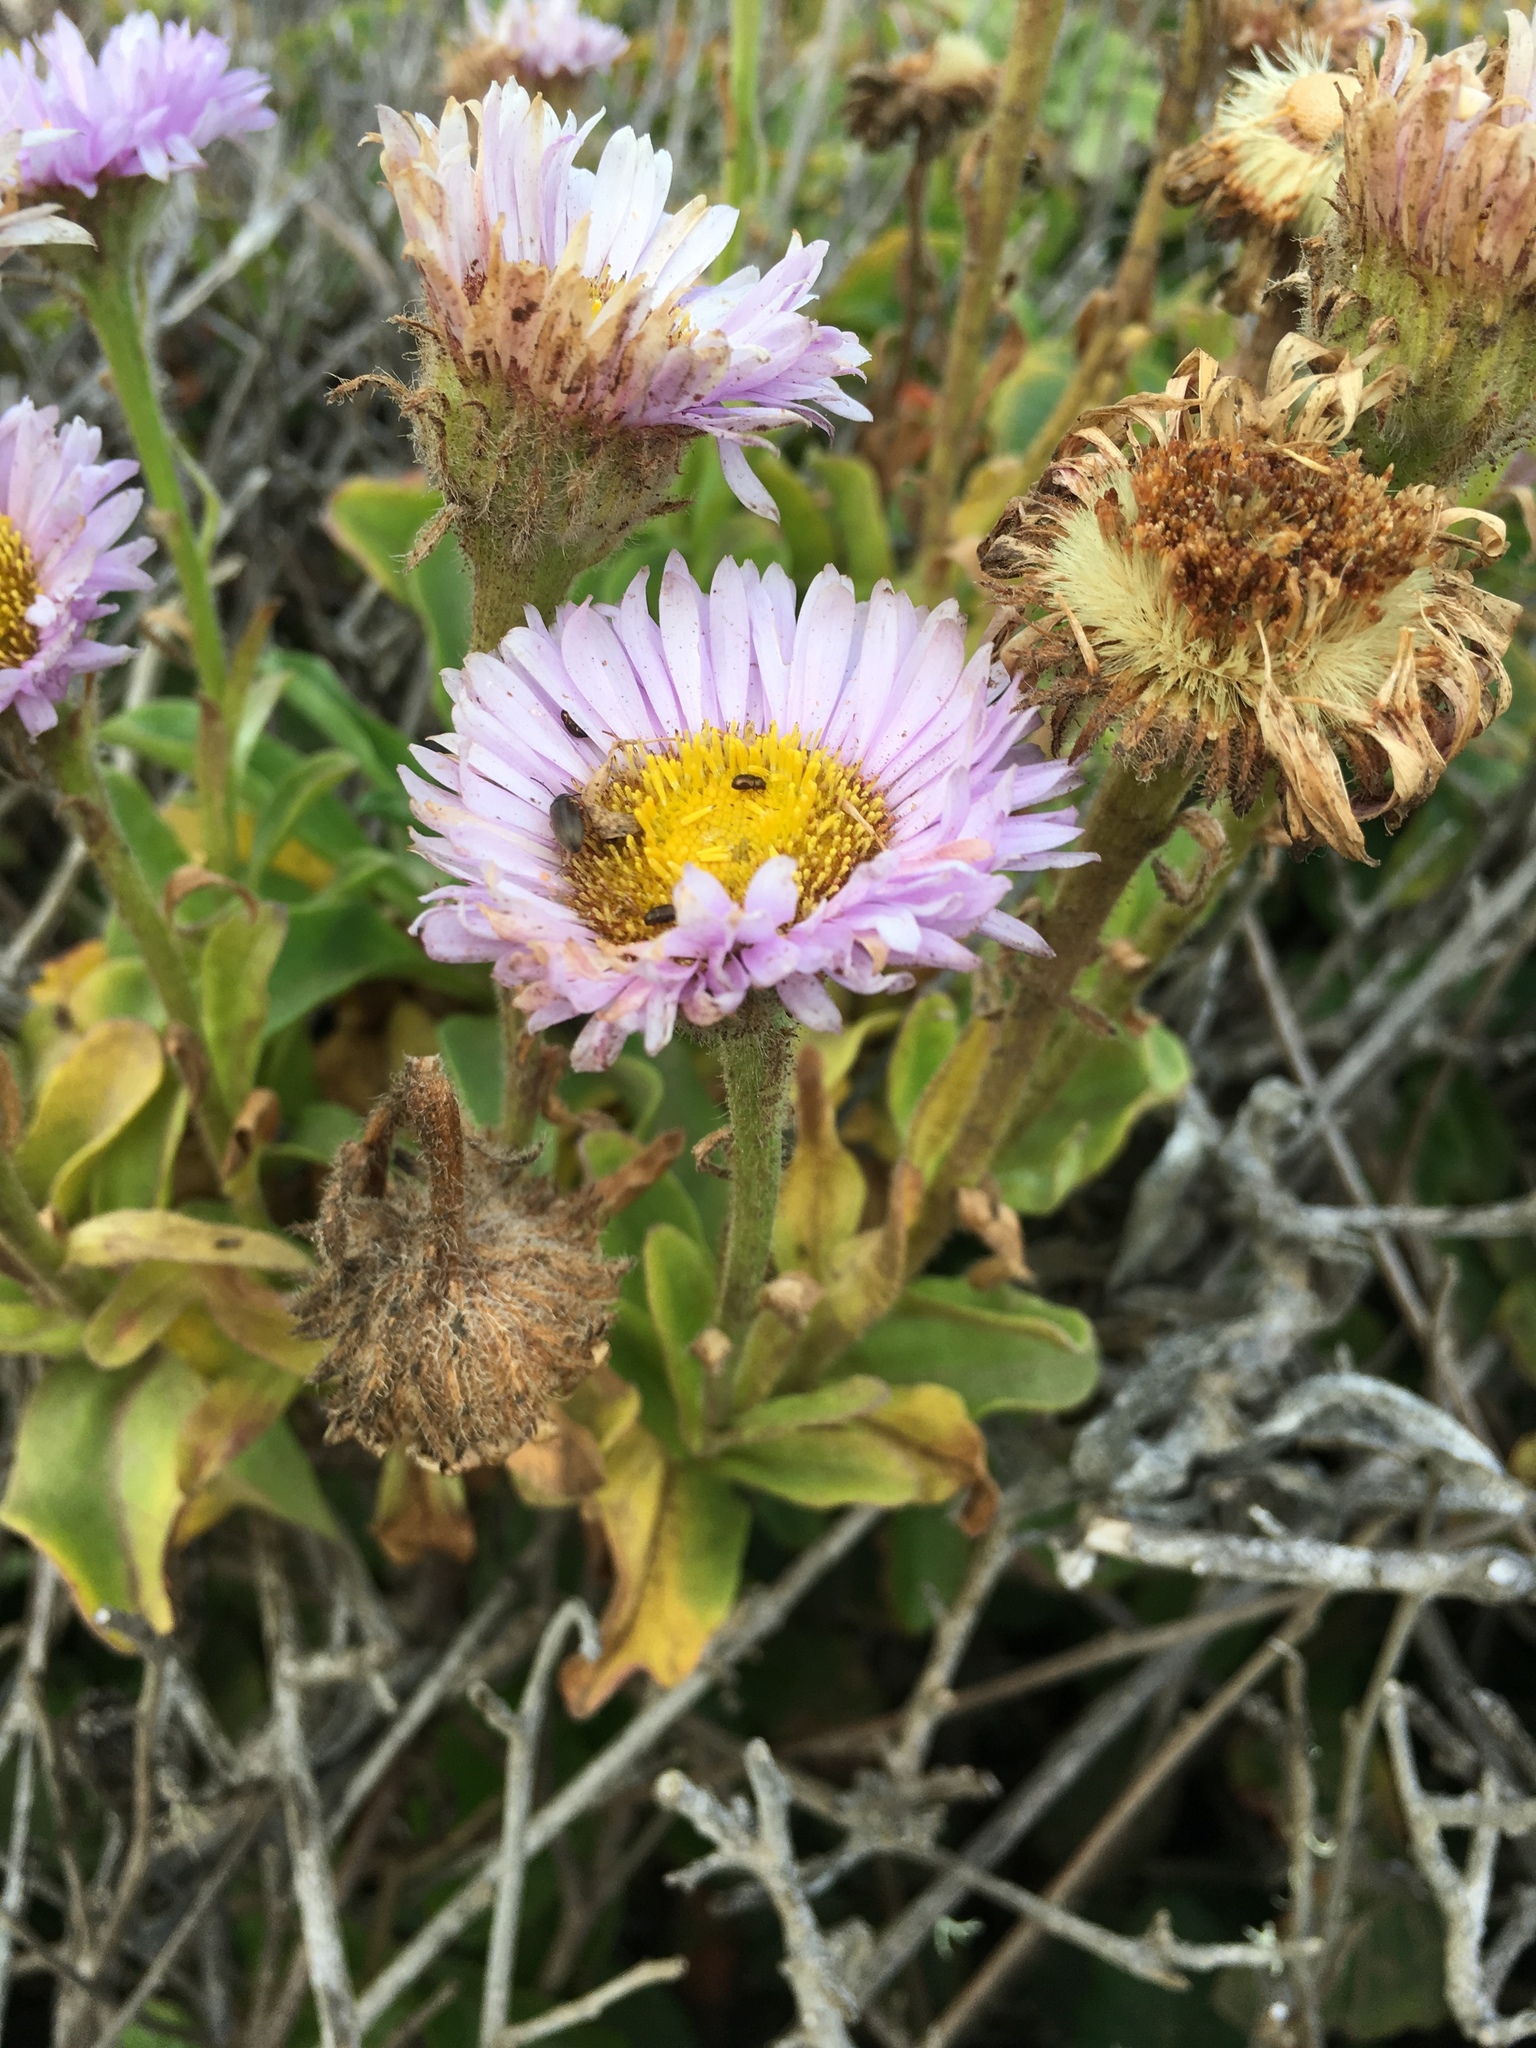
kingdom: Plantae
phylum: Tracheophyta
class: Magnoliopsida
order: Asterales
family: Asteraceae
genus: Erigeron
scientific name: Erigeron glaucus
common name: Seaside daisy
